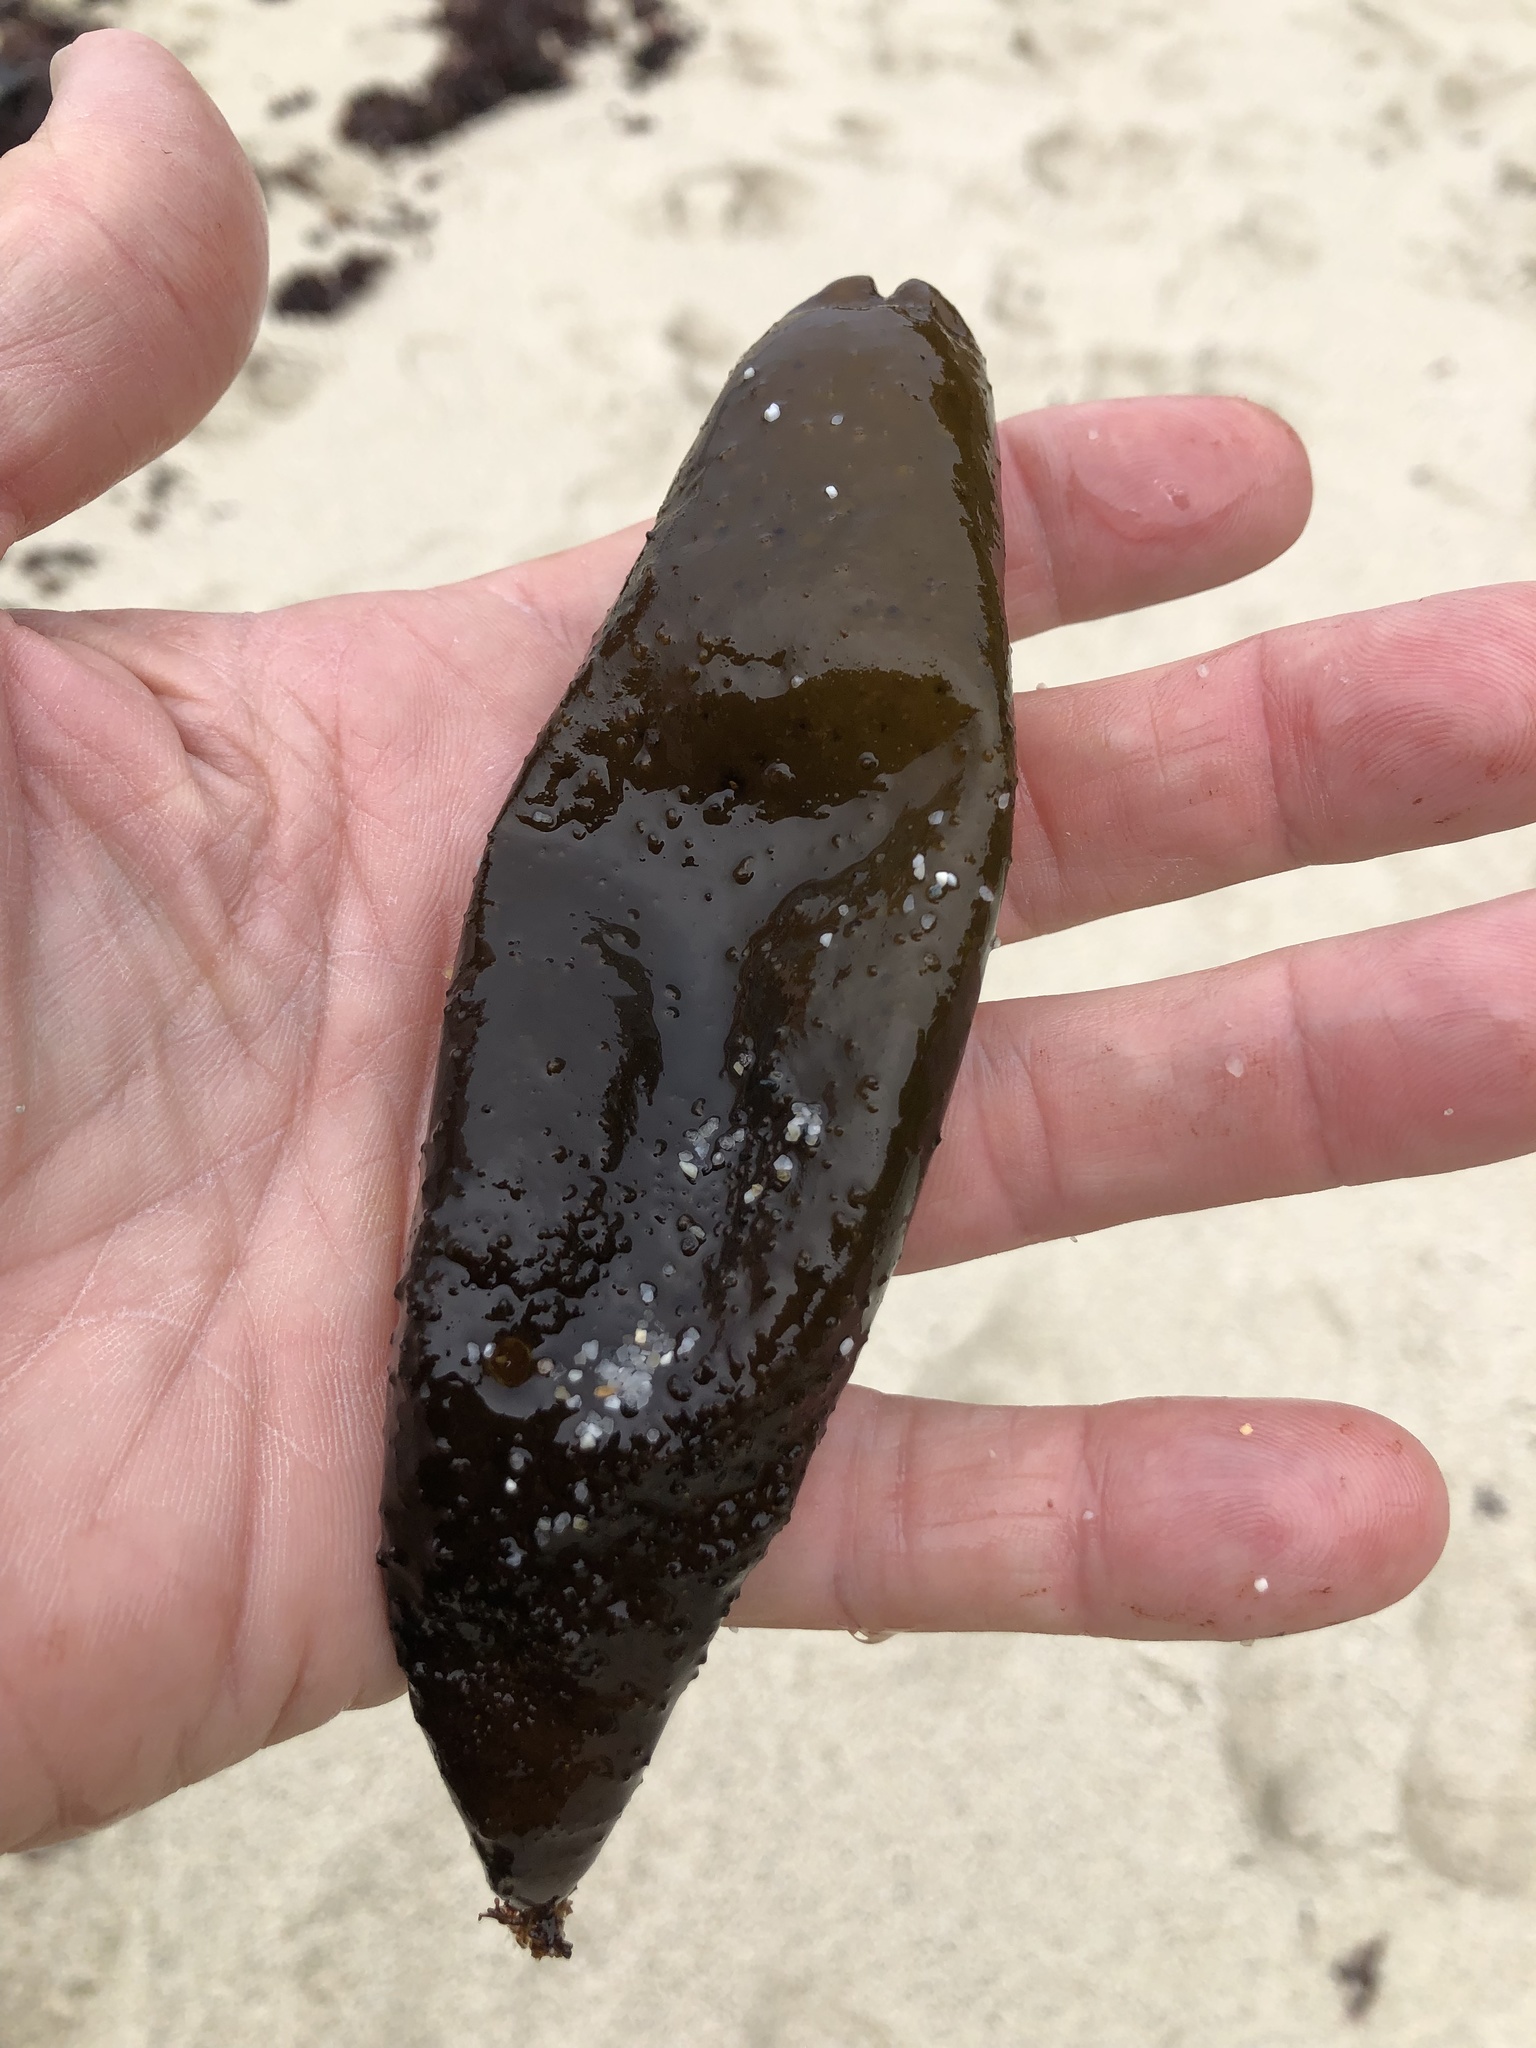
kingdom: Plantae
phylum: Rhodophyta
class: Florideophyceae
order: Palmariales
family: Palmariaceae
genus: Halosaccion
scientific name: Halosaccion glandiforme
